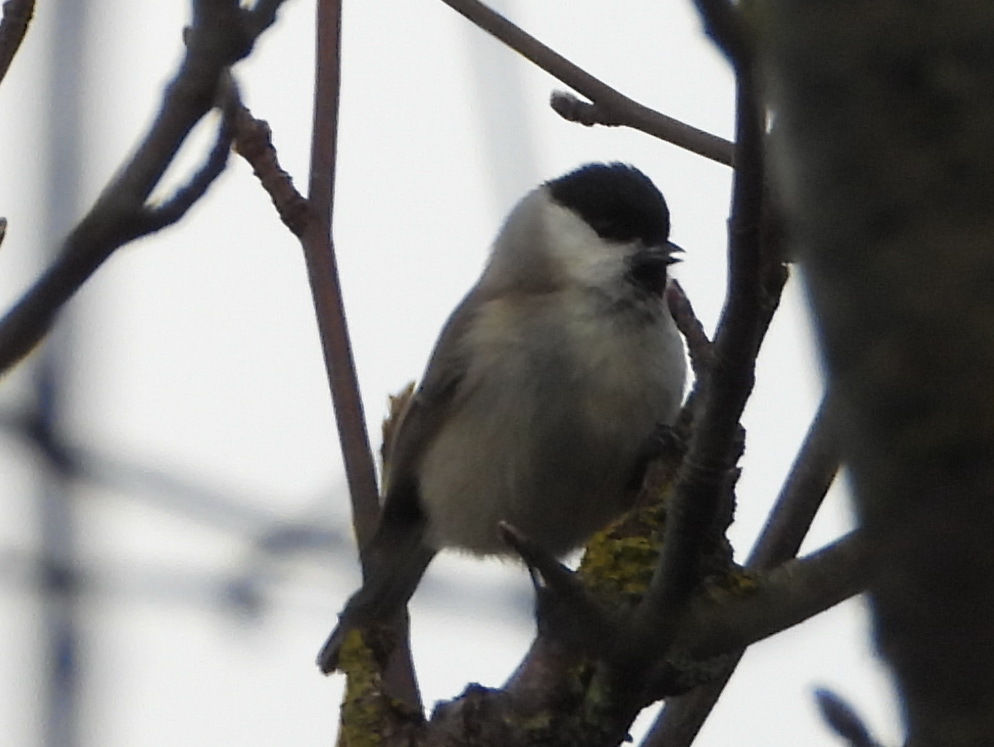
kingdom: Animalia
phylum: Chordata
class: Aves
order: Passeriformes
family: Paridae
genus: Poecile
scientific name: Poecile palustris
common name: Marsh tit
